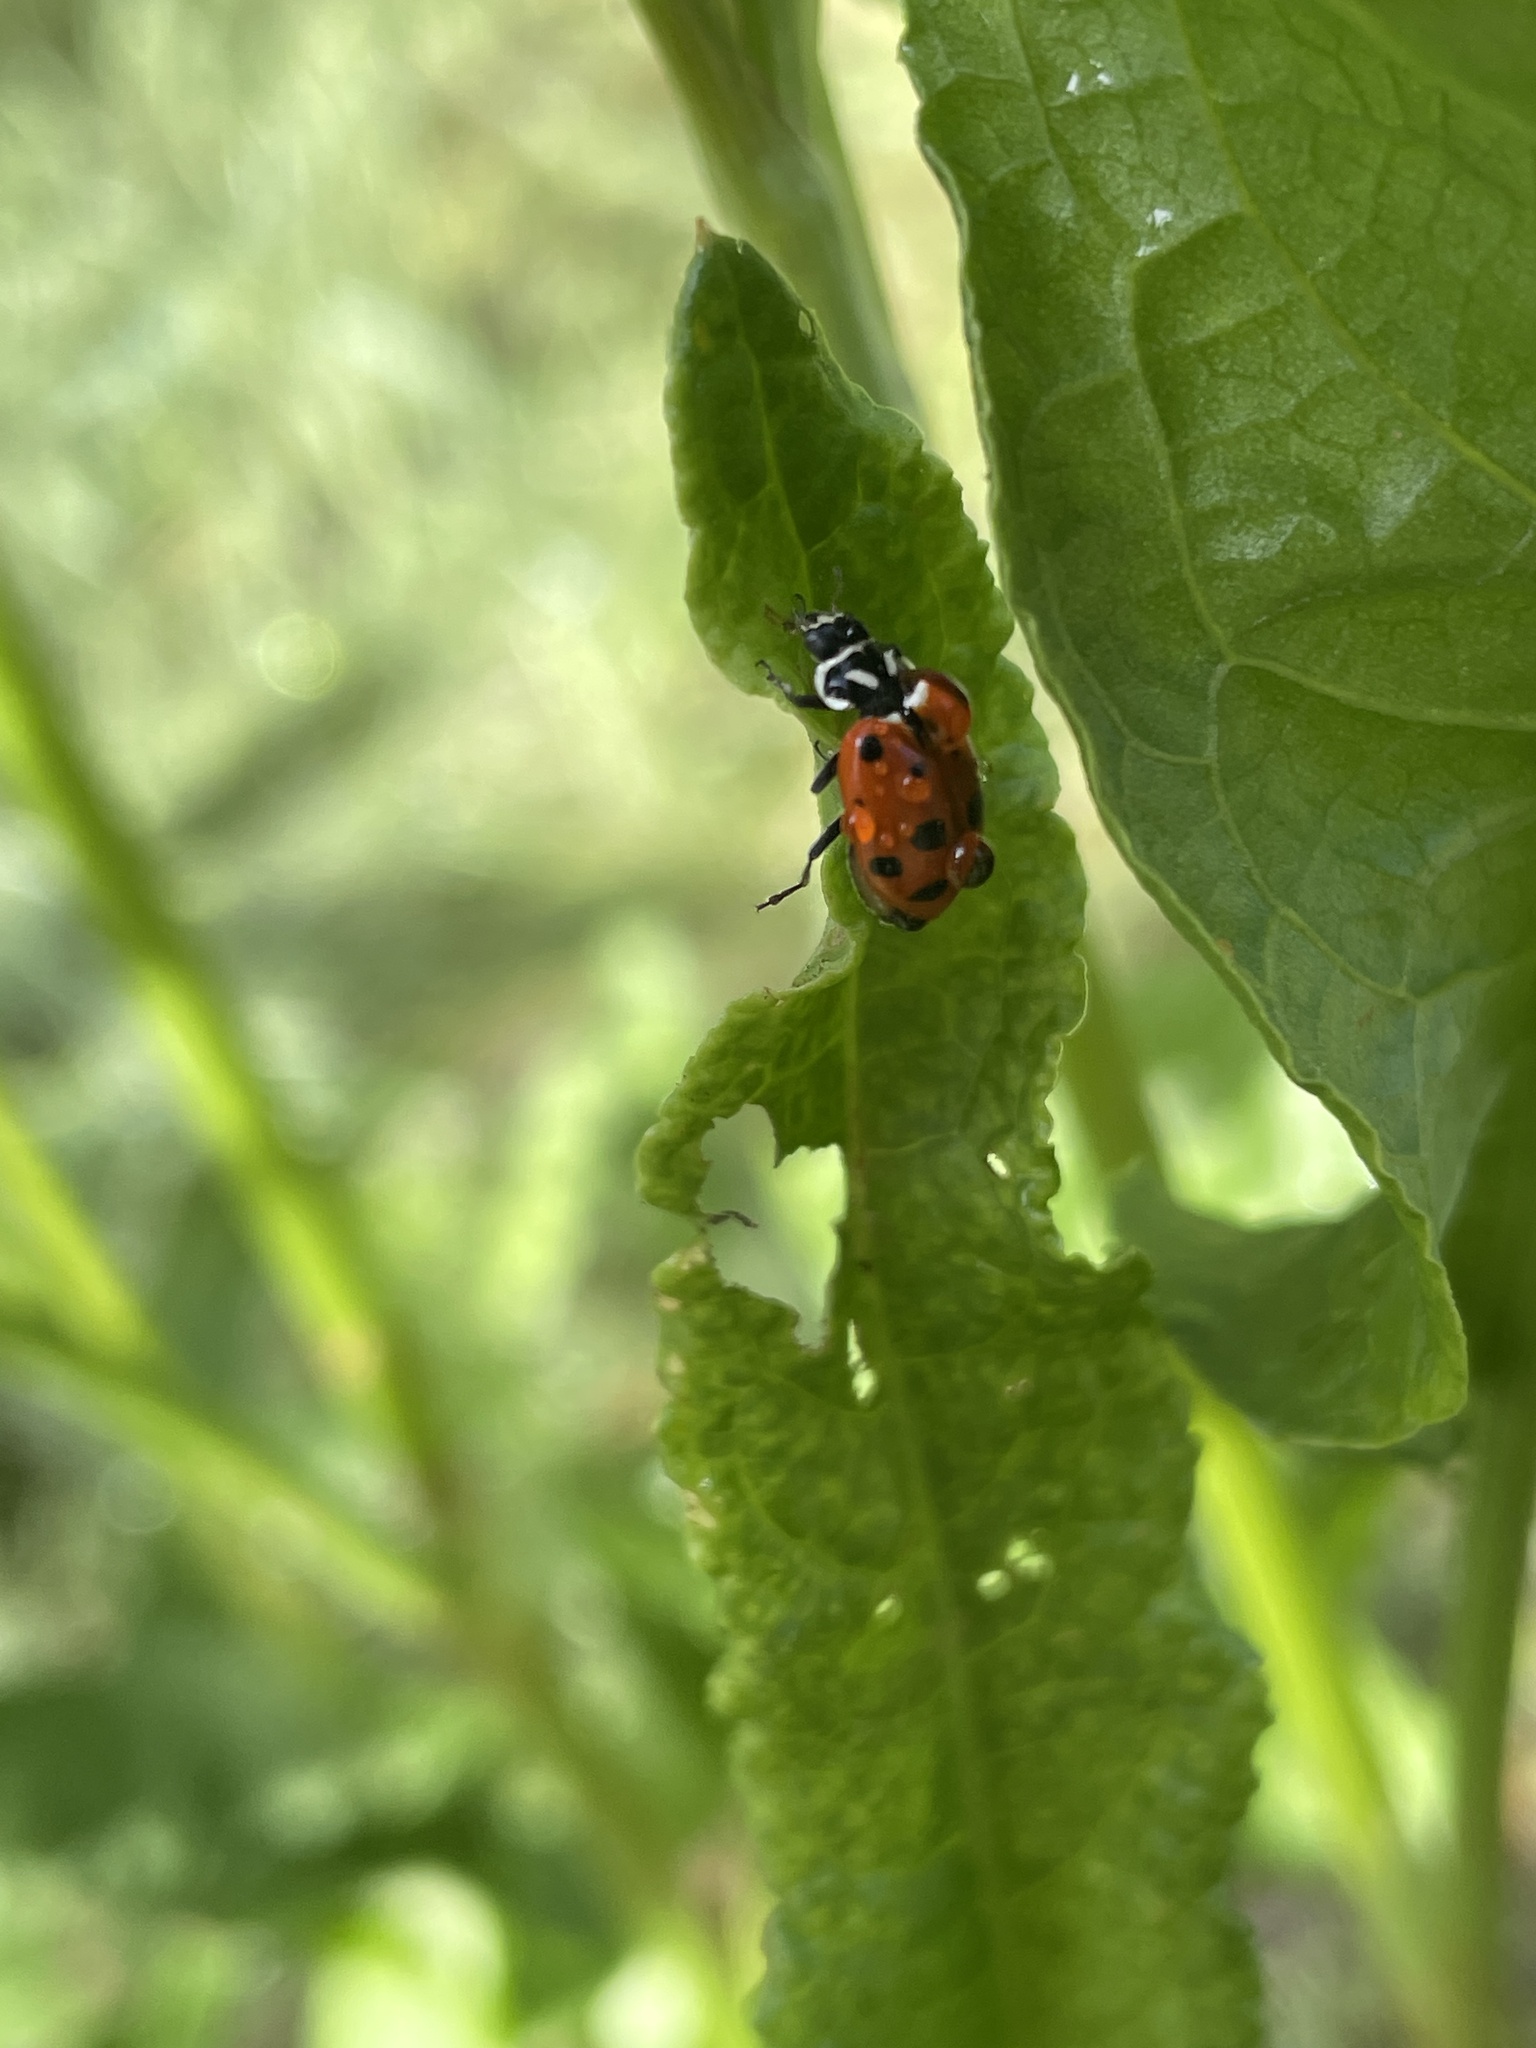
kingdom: Animalia
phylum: Arthropoda
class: Insecta
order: Coleoptera
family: Coccinellidae
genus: Hippodamia
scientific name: Hippodamia convergens
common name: Convergent lady beetle
